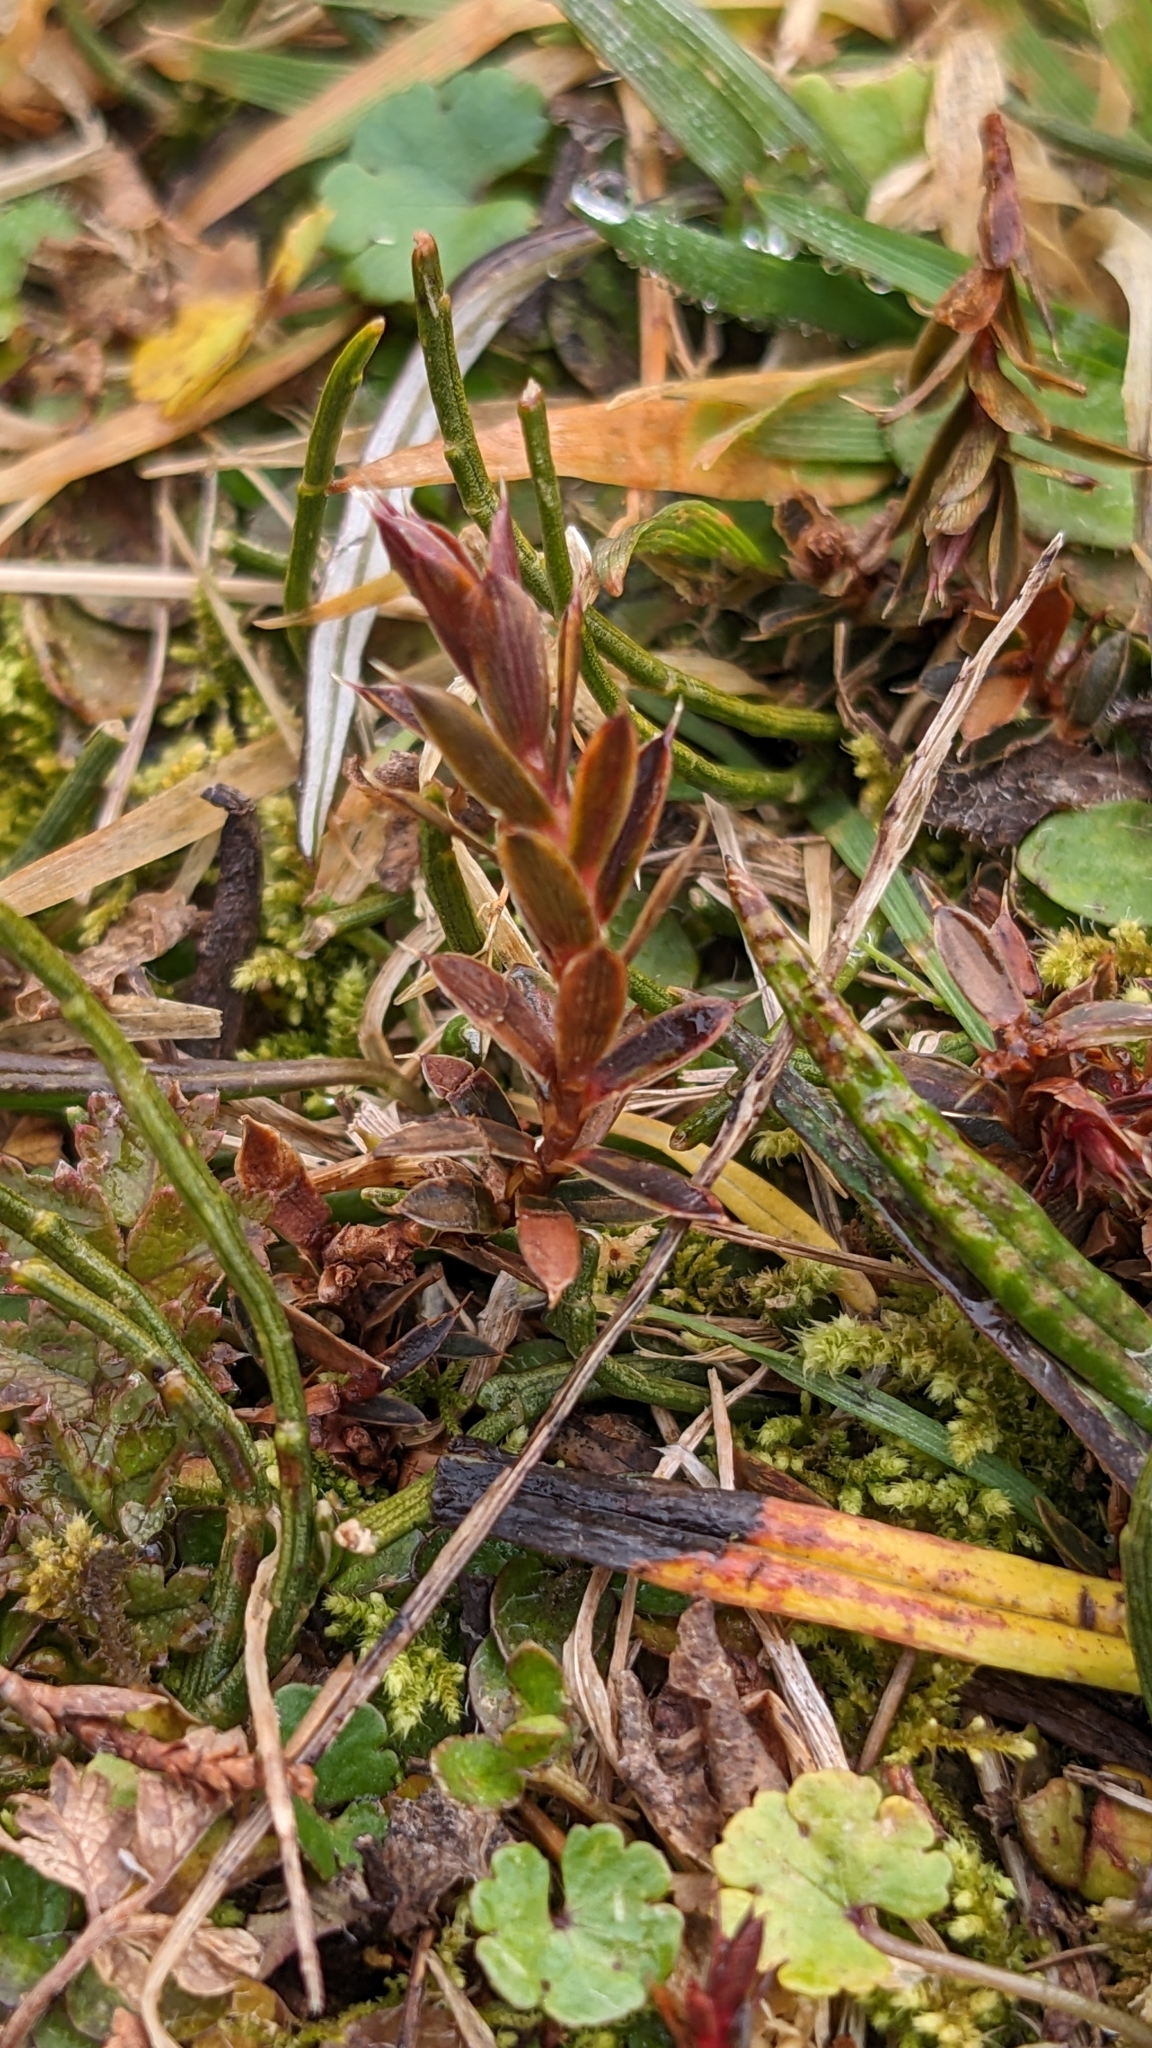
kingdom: Plantae
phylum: Tracheophyta
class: Magnoliopsida
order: Ericales
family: Ericaceae
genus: Styphelia
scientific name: Styphelia nesophila
